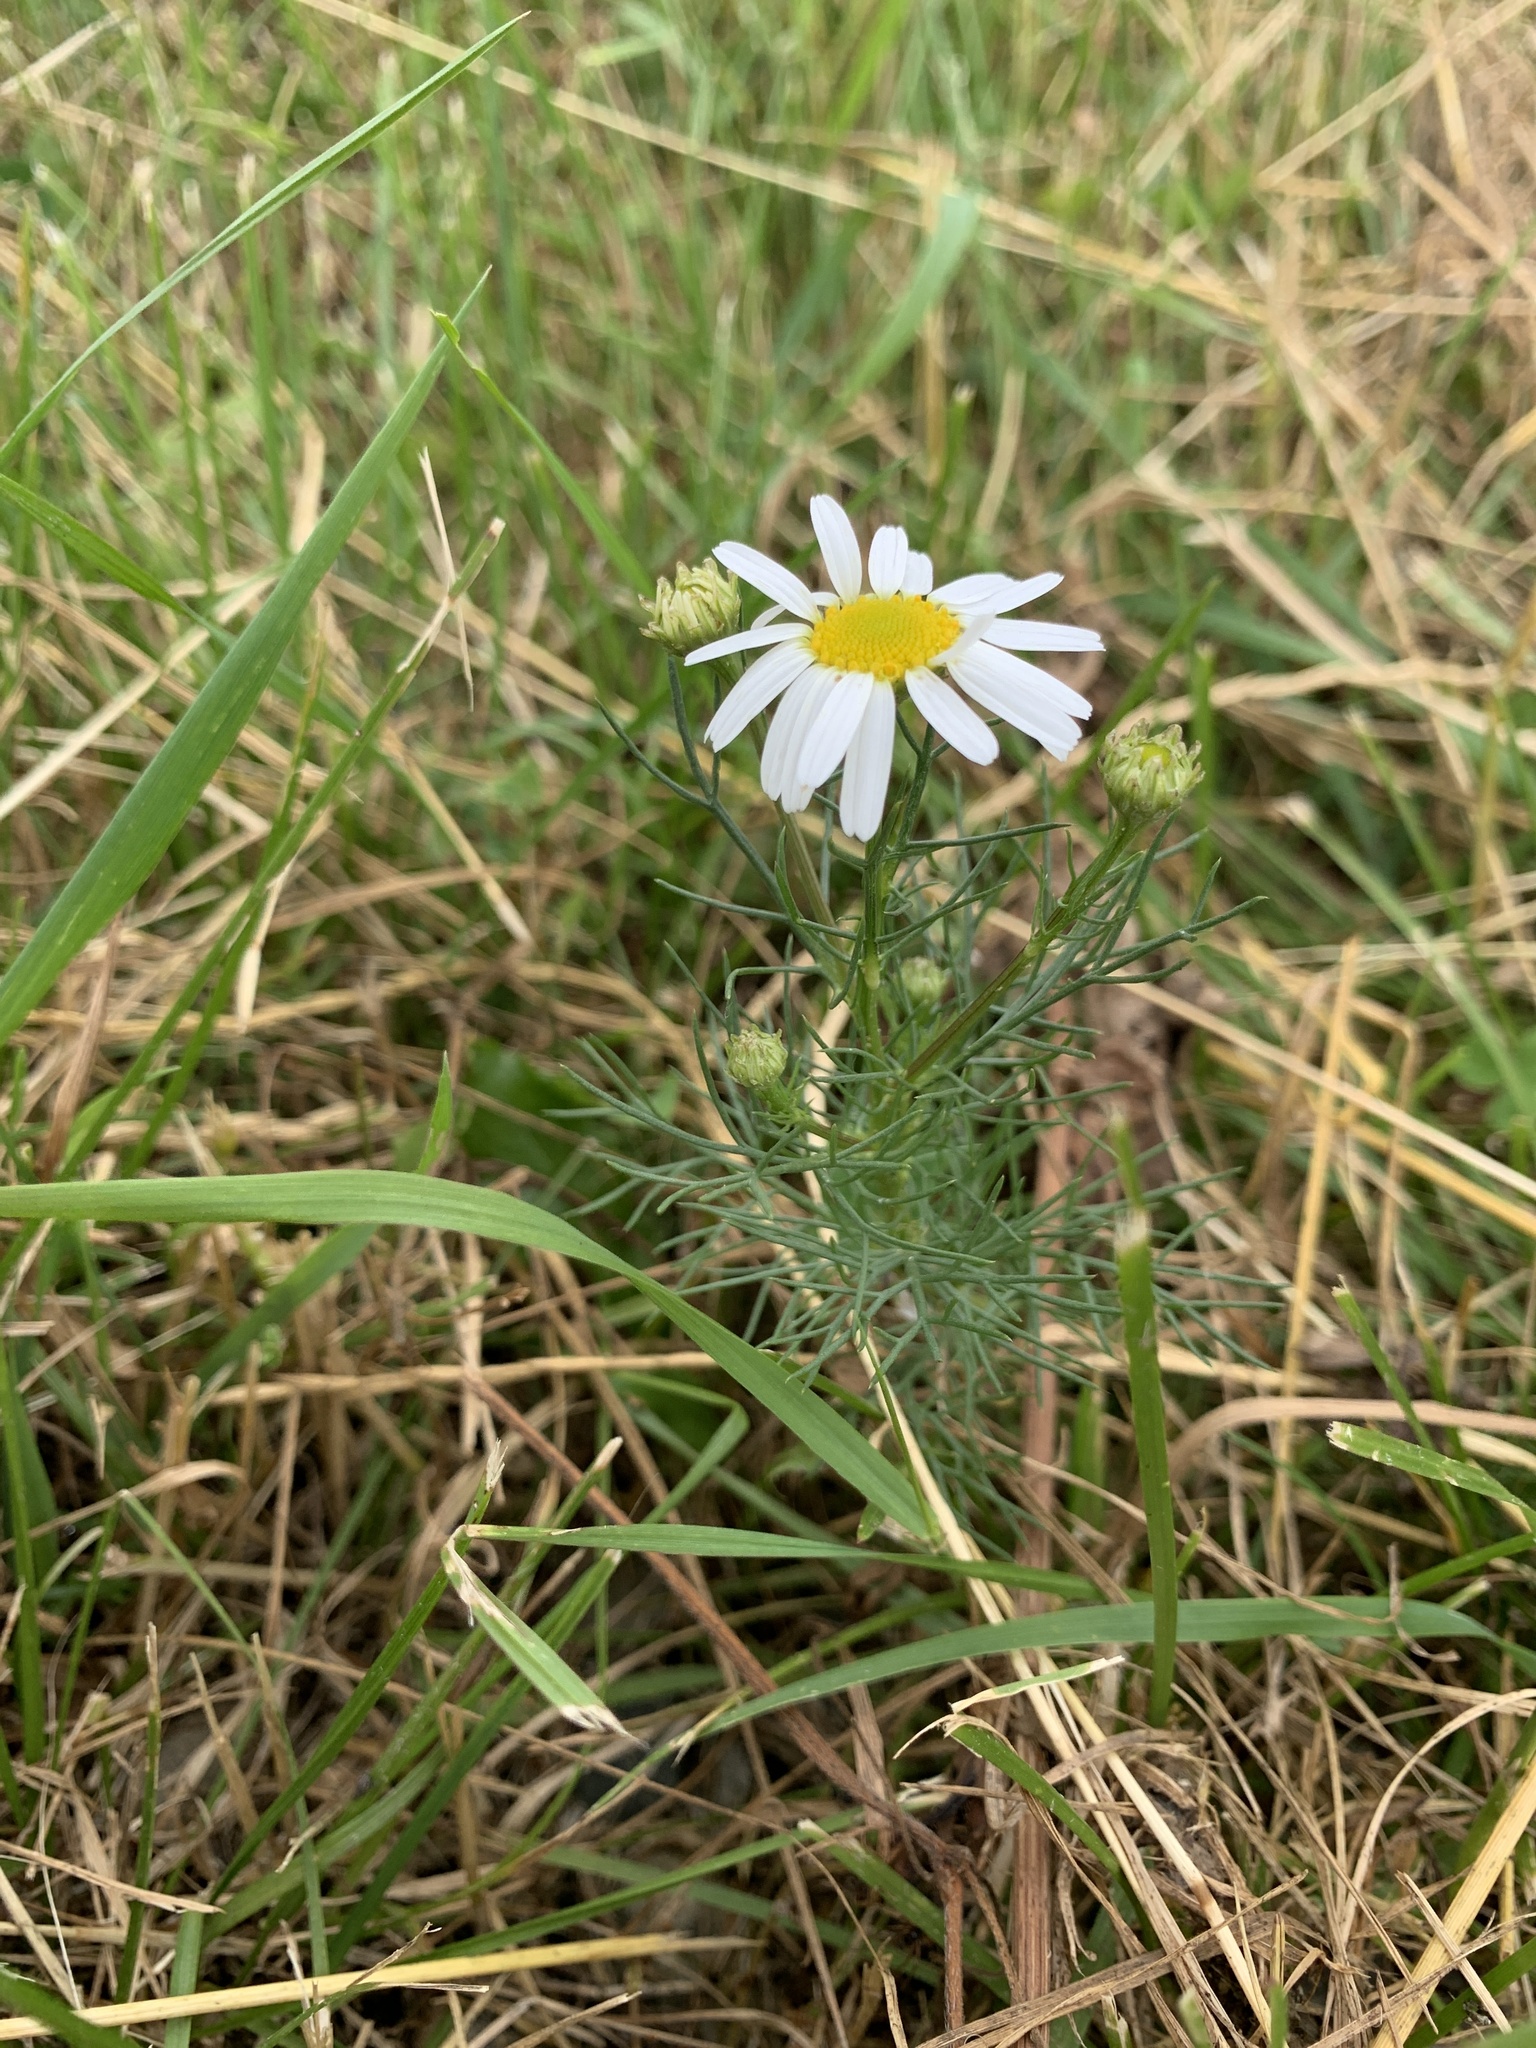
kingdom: Plantae
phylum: Tracheophyta
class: Magnoliopsida
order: Asterales
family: Asteraceae
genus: Tripleurospermum
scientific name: Tripleurospermum inodorum
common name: Scentless mayweed
